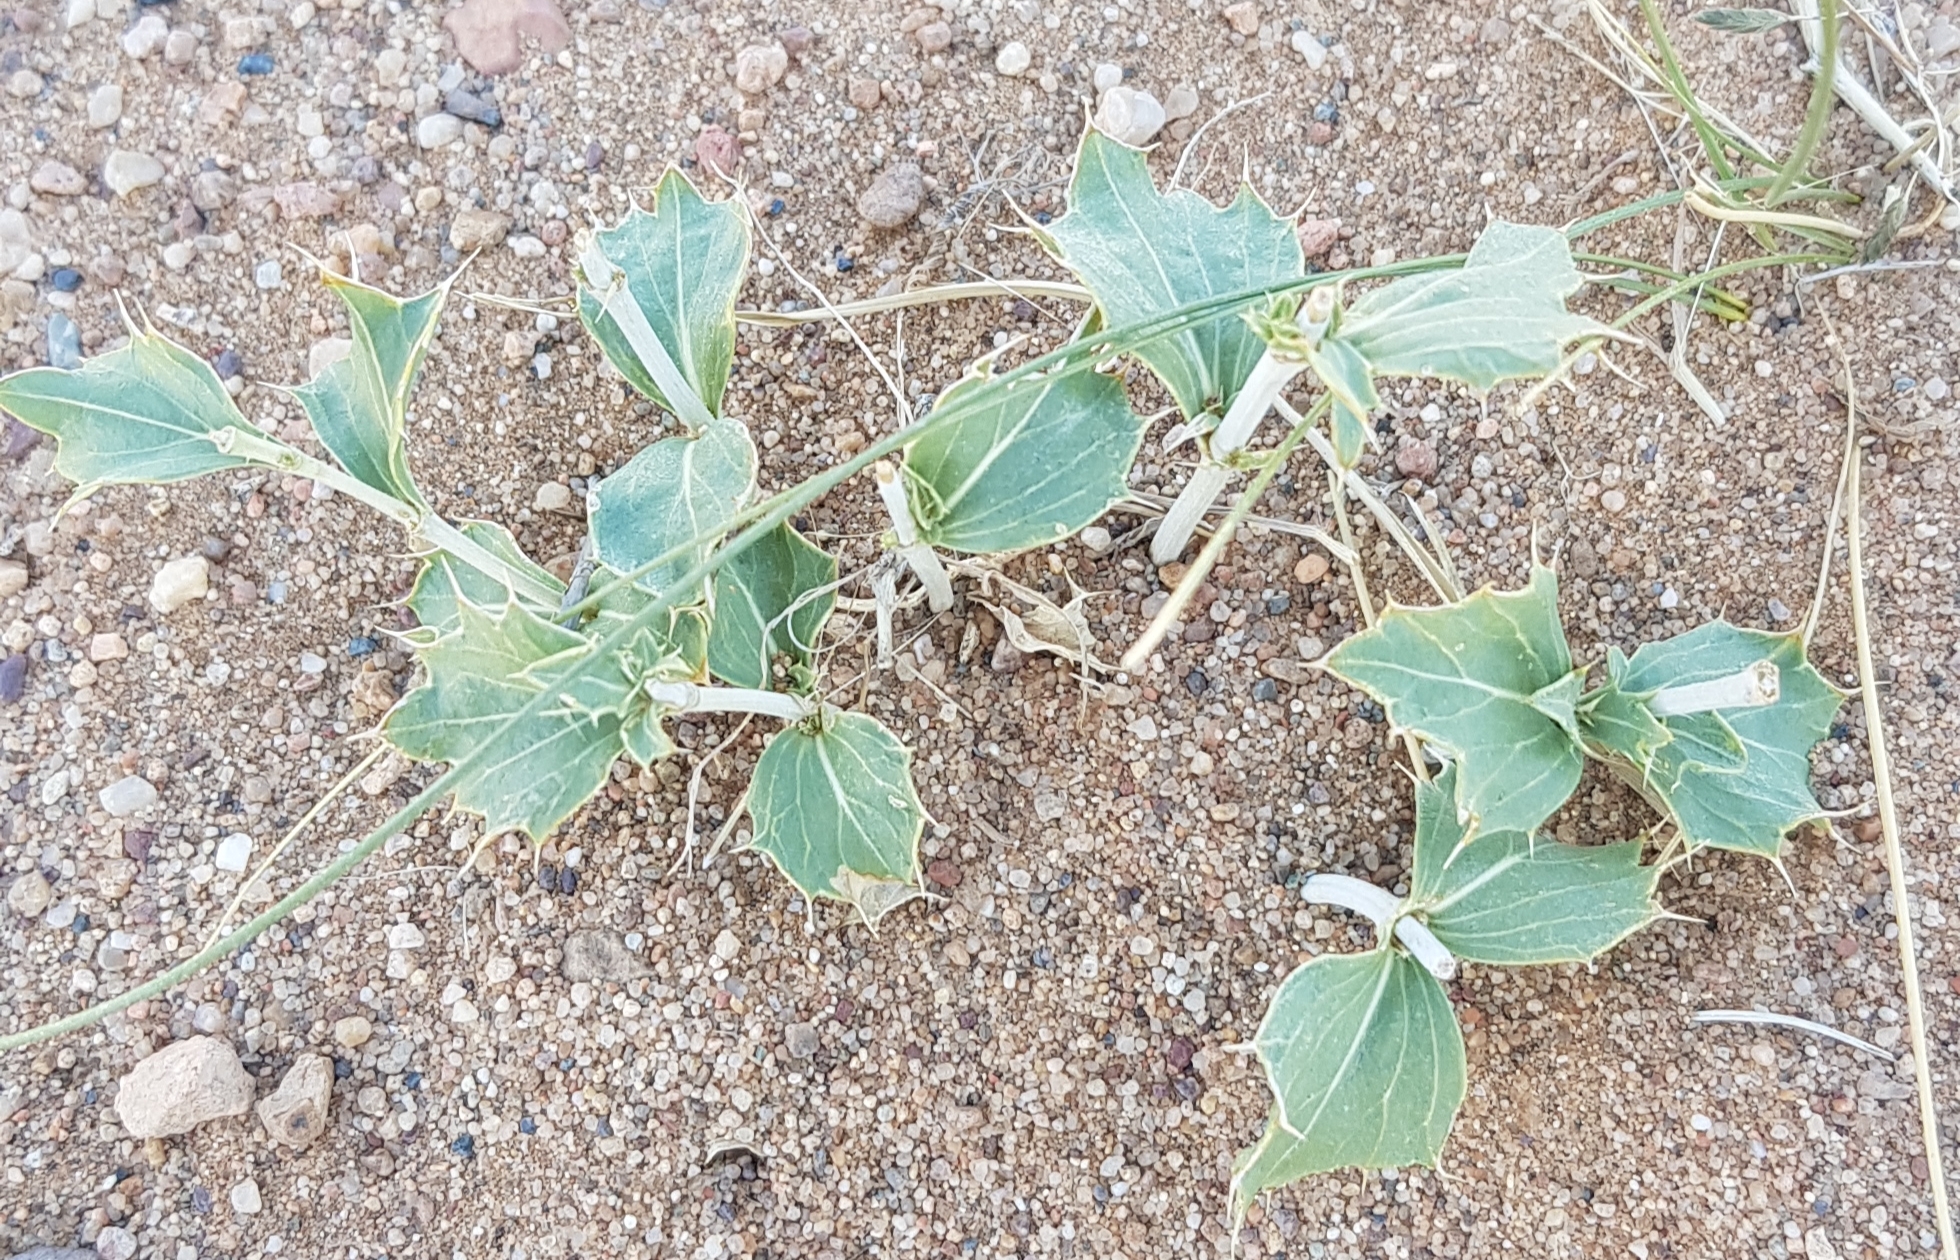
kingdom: Plantae
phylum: Tracheophyta
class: Magnoliopsida
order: Lamiales
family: Lamiaceae
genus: Lagochilus
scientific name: Lagochilus ilicifolius
